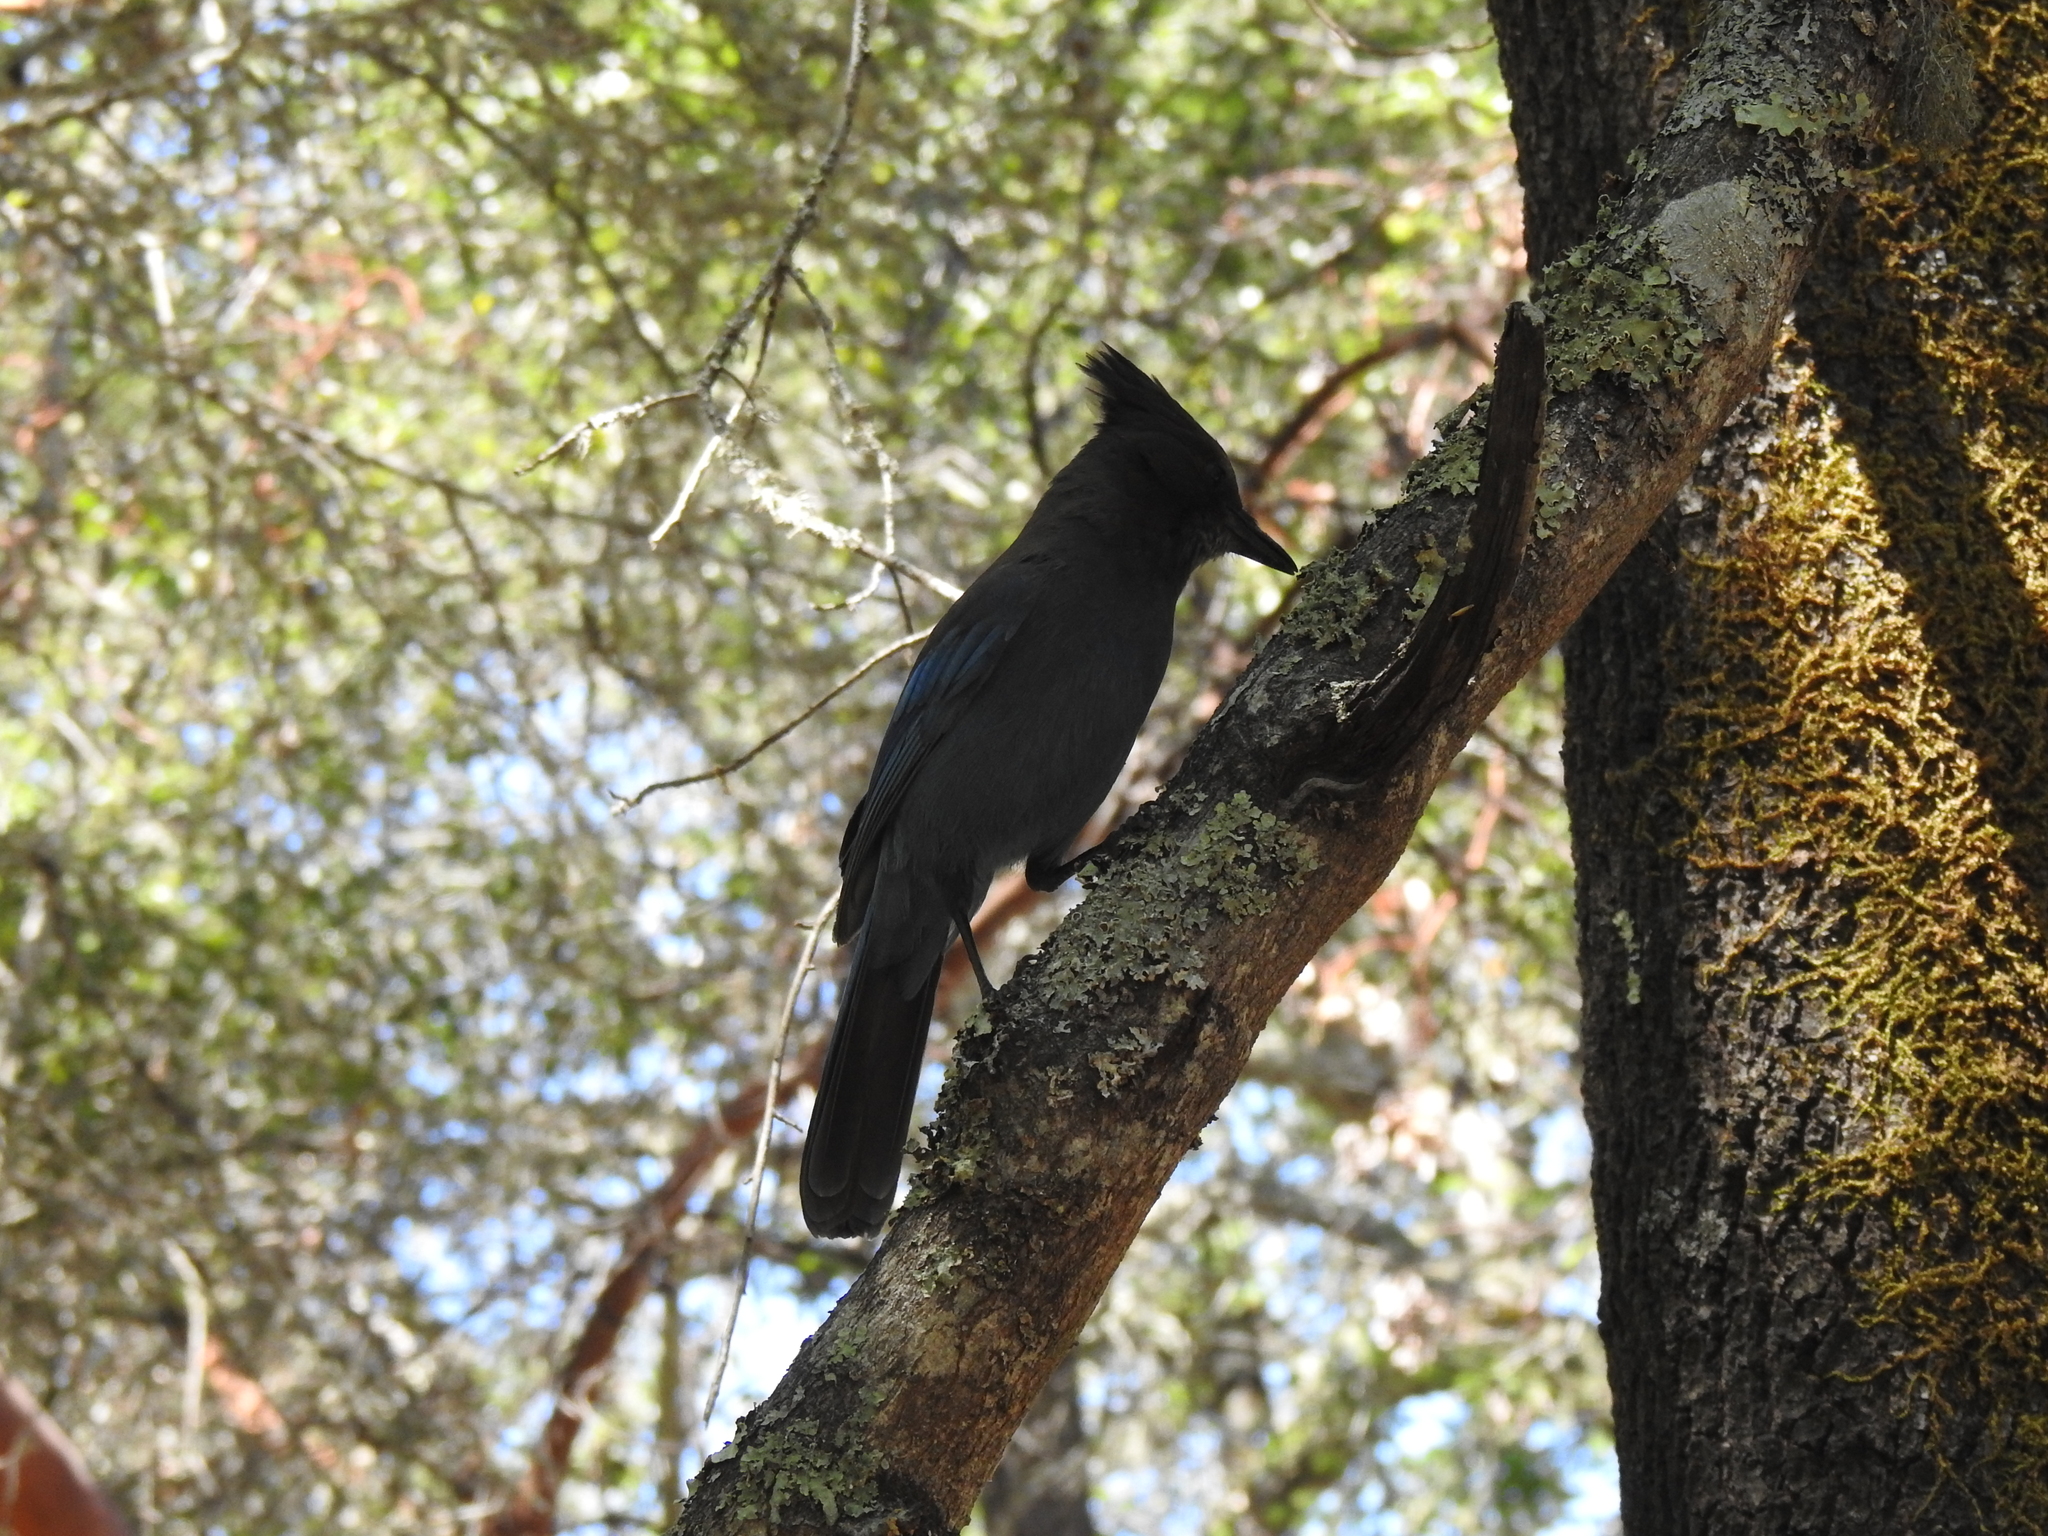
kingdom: Animalia
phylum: Chordata
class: Aves
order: Passeriformes
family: Corvidae
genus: Cyanocitta
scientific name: Cyanocitta stelleri
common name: Steller's jay
